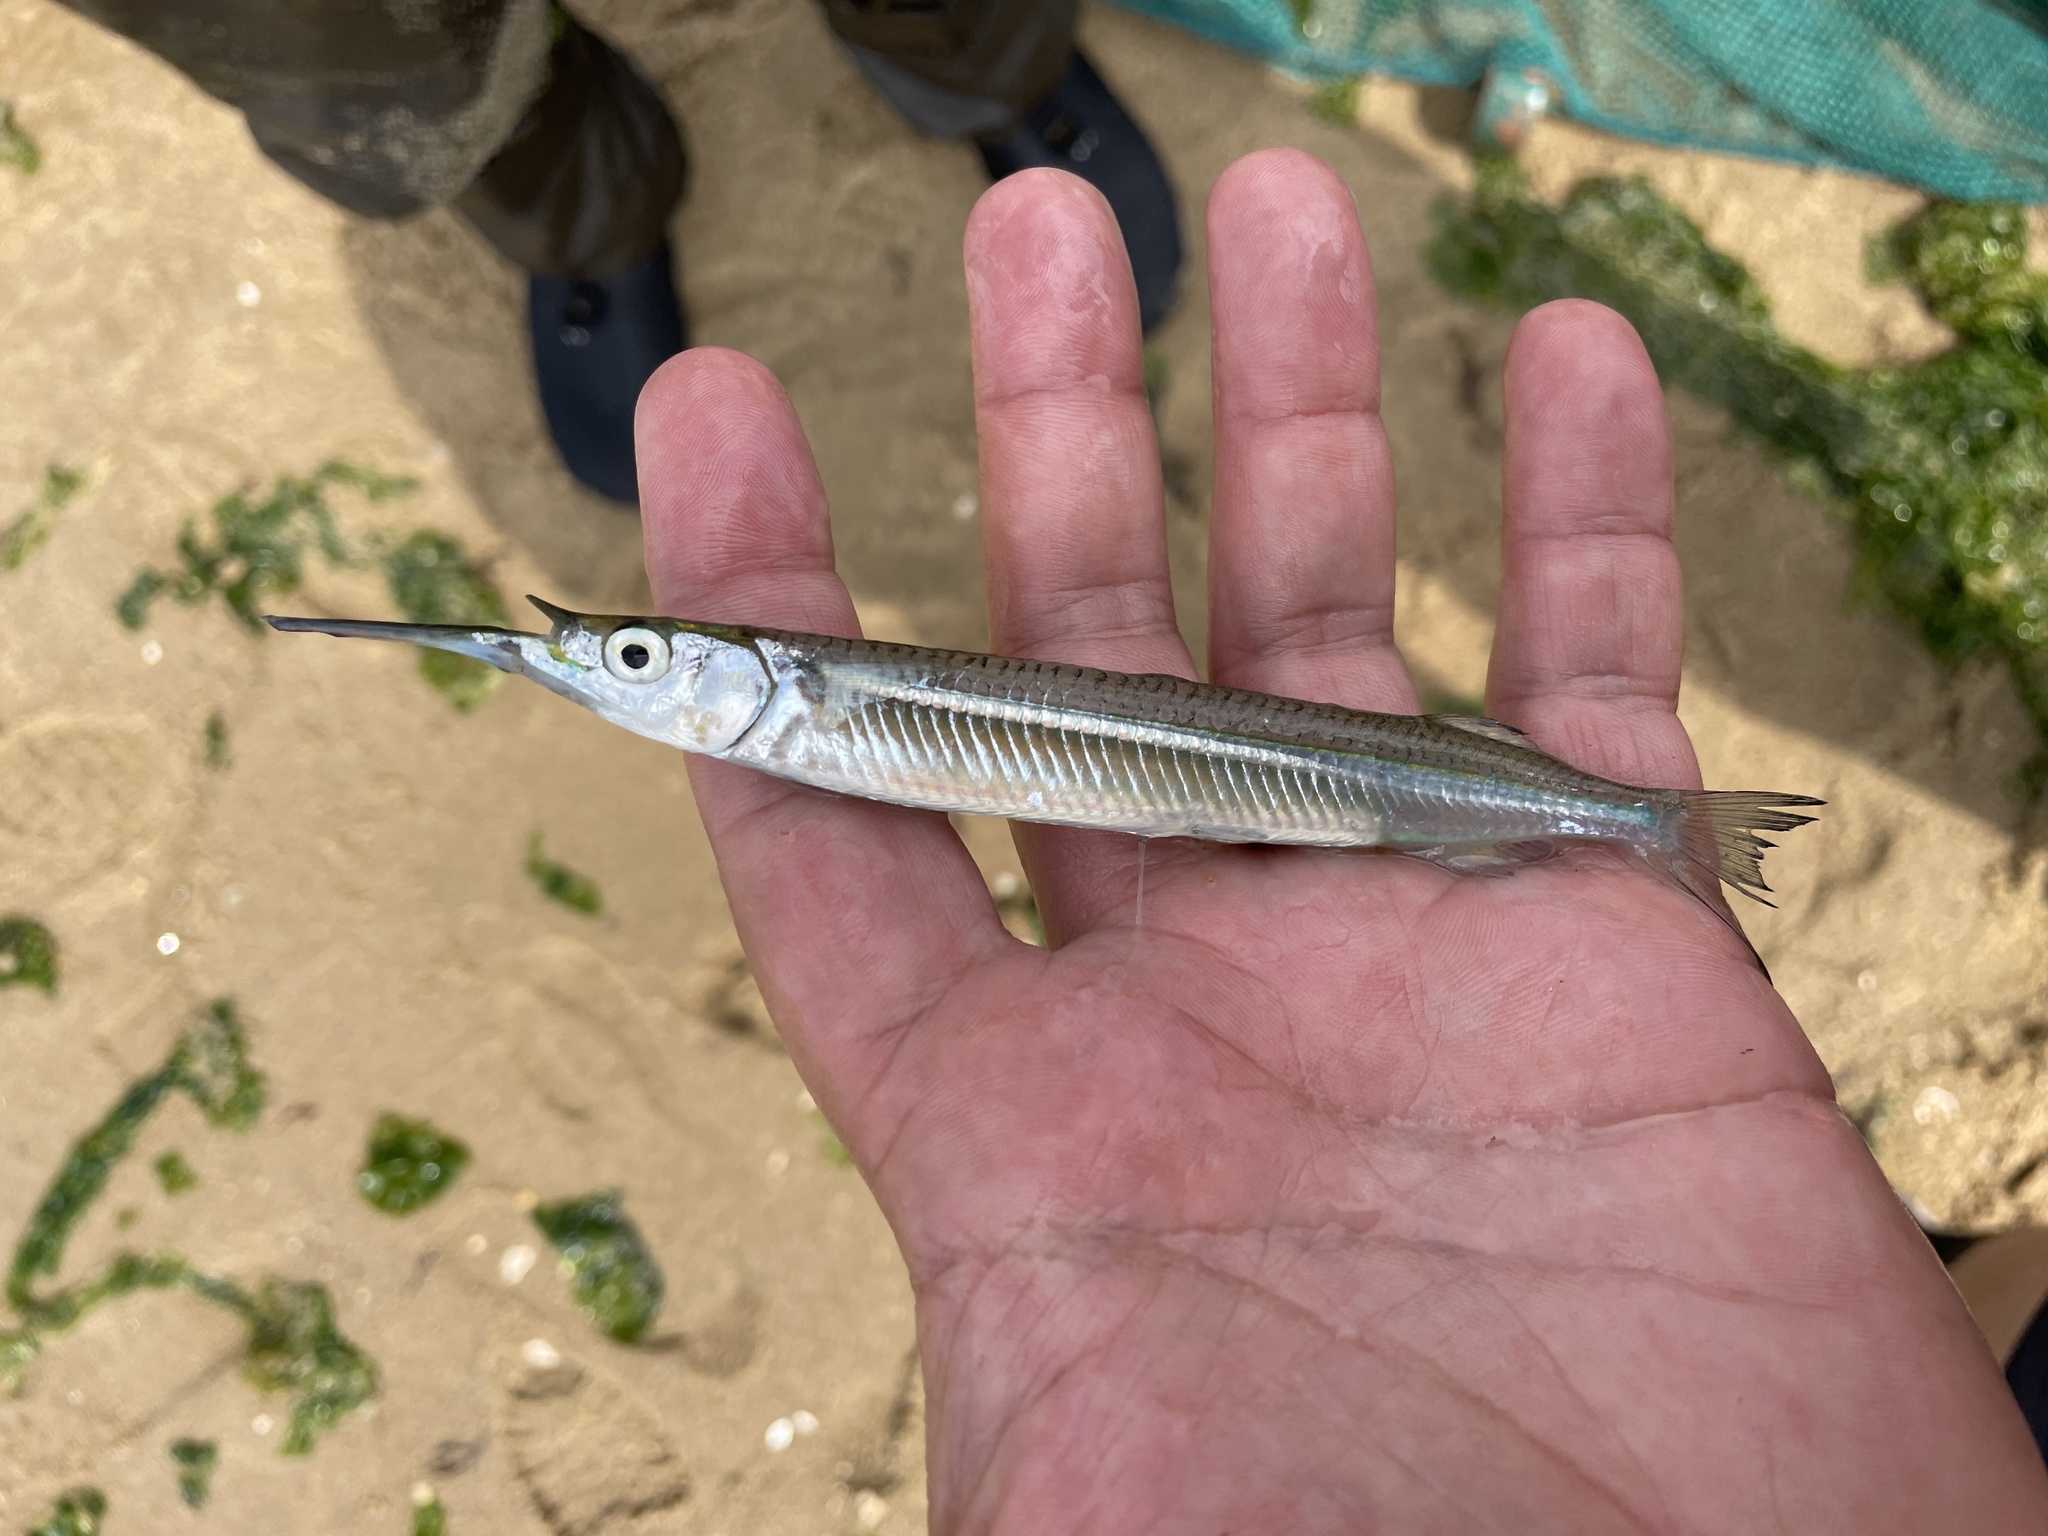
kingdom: Animalia
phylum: Chordata
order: Beloniformes
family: Hemiramphidae
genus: Hyporhamphus
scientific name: Hyporhamphus meeki
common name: American halfbeak
